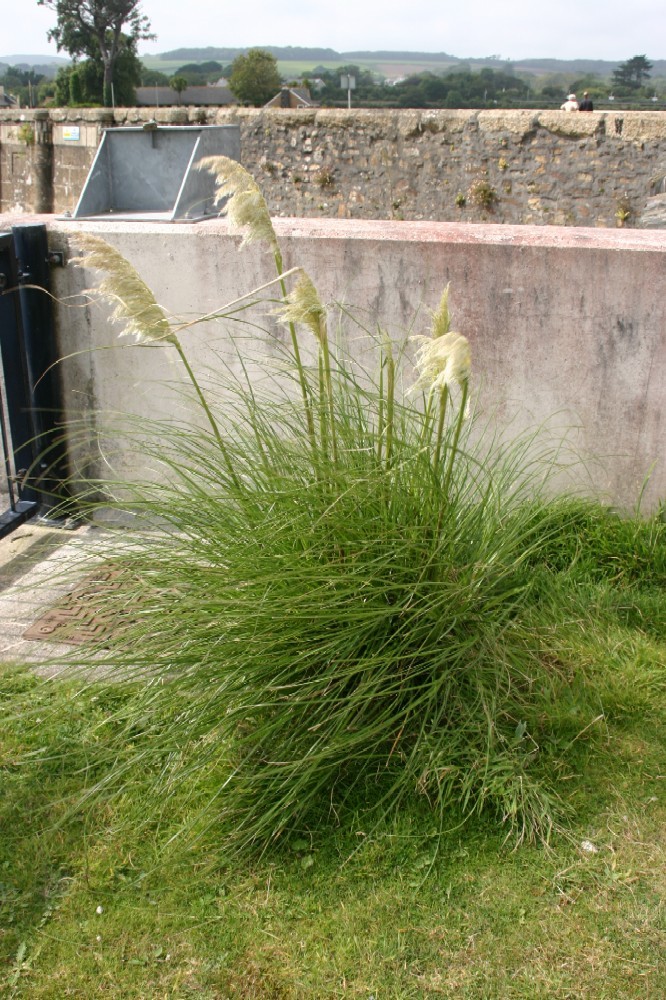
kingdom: Plantae
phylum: Tracheophyta
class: Liliopsida
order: Poales
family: Poaceae
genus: Cortaderia
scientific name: Cortaderia selloana
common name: Uruguayan pampas grass
